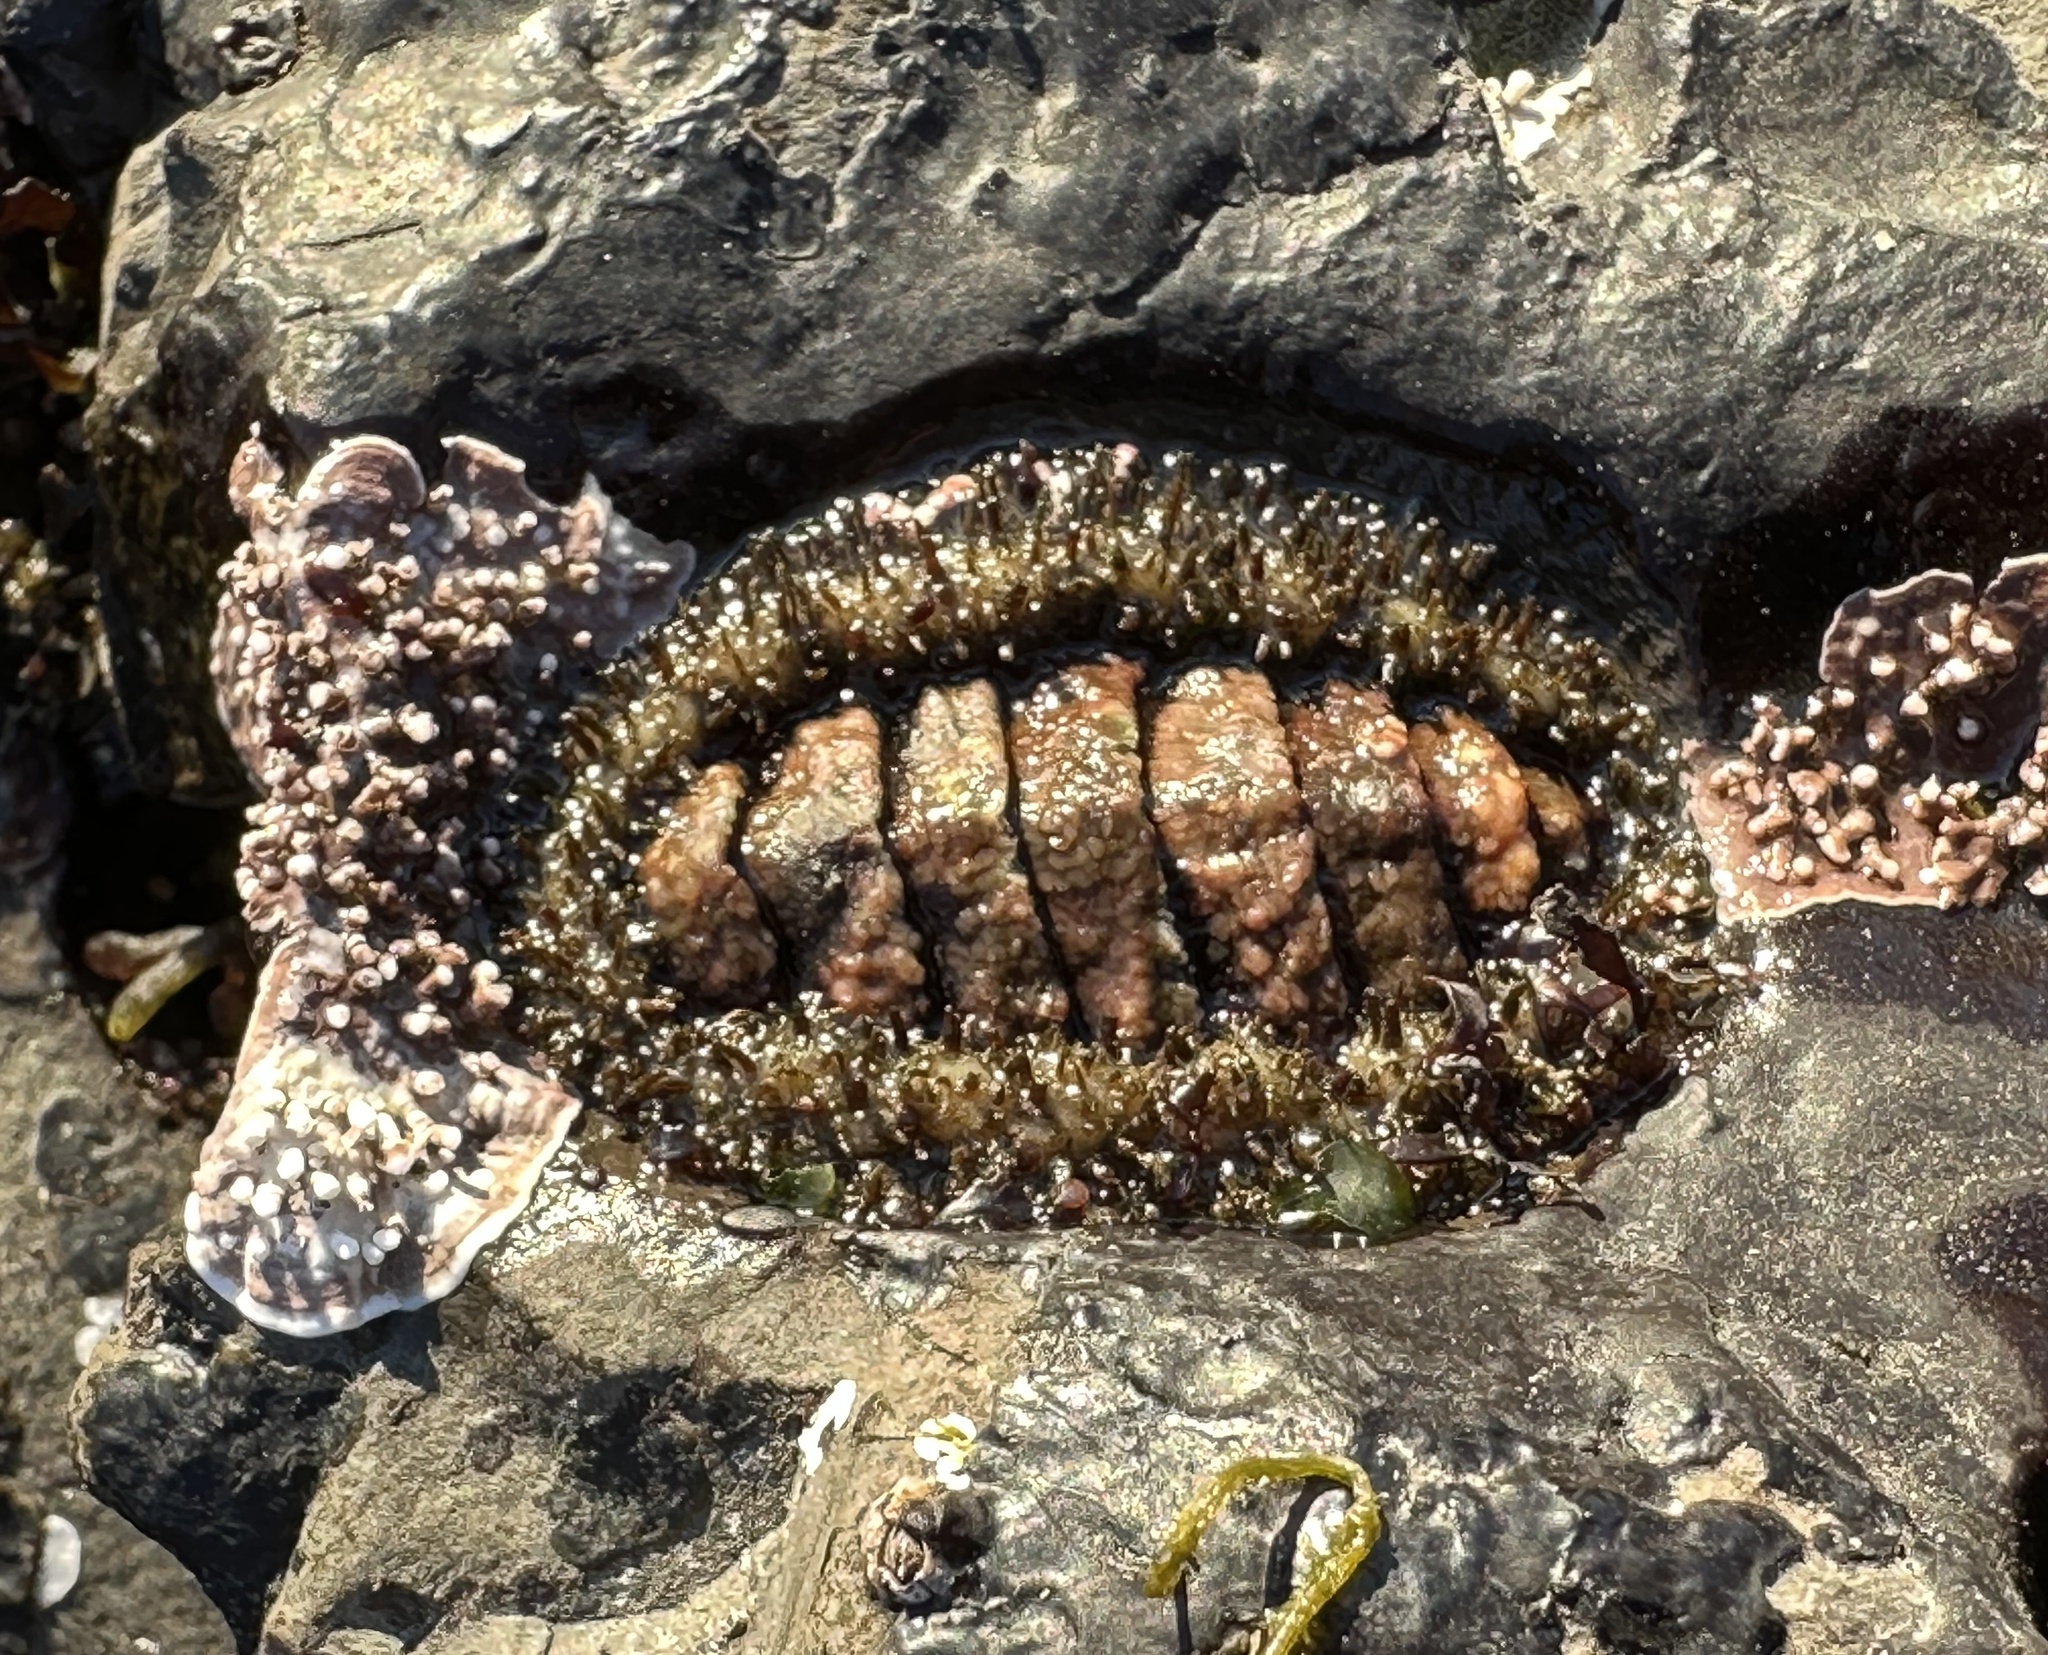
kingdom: Animalia
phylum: Mollusca
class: Polyplacophora
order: Chitonida
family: Mopaliidae
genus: Mopalia
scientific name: Mopalia muscosa
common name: Mossy chiton
